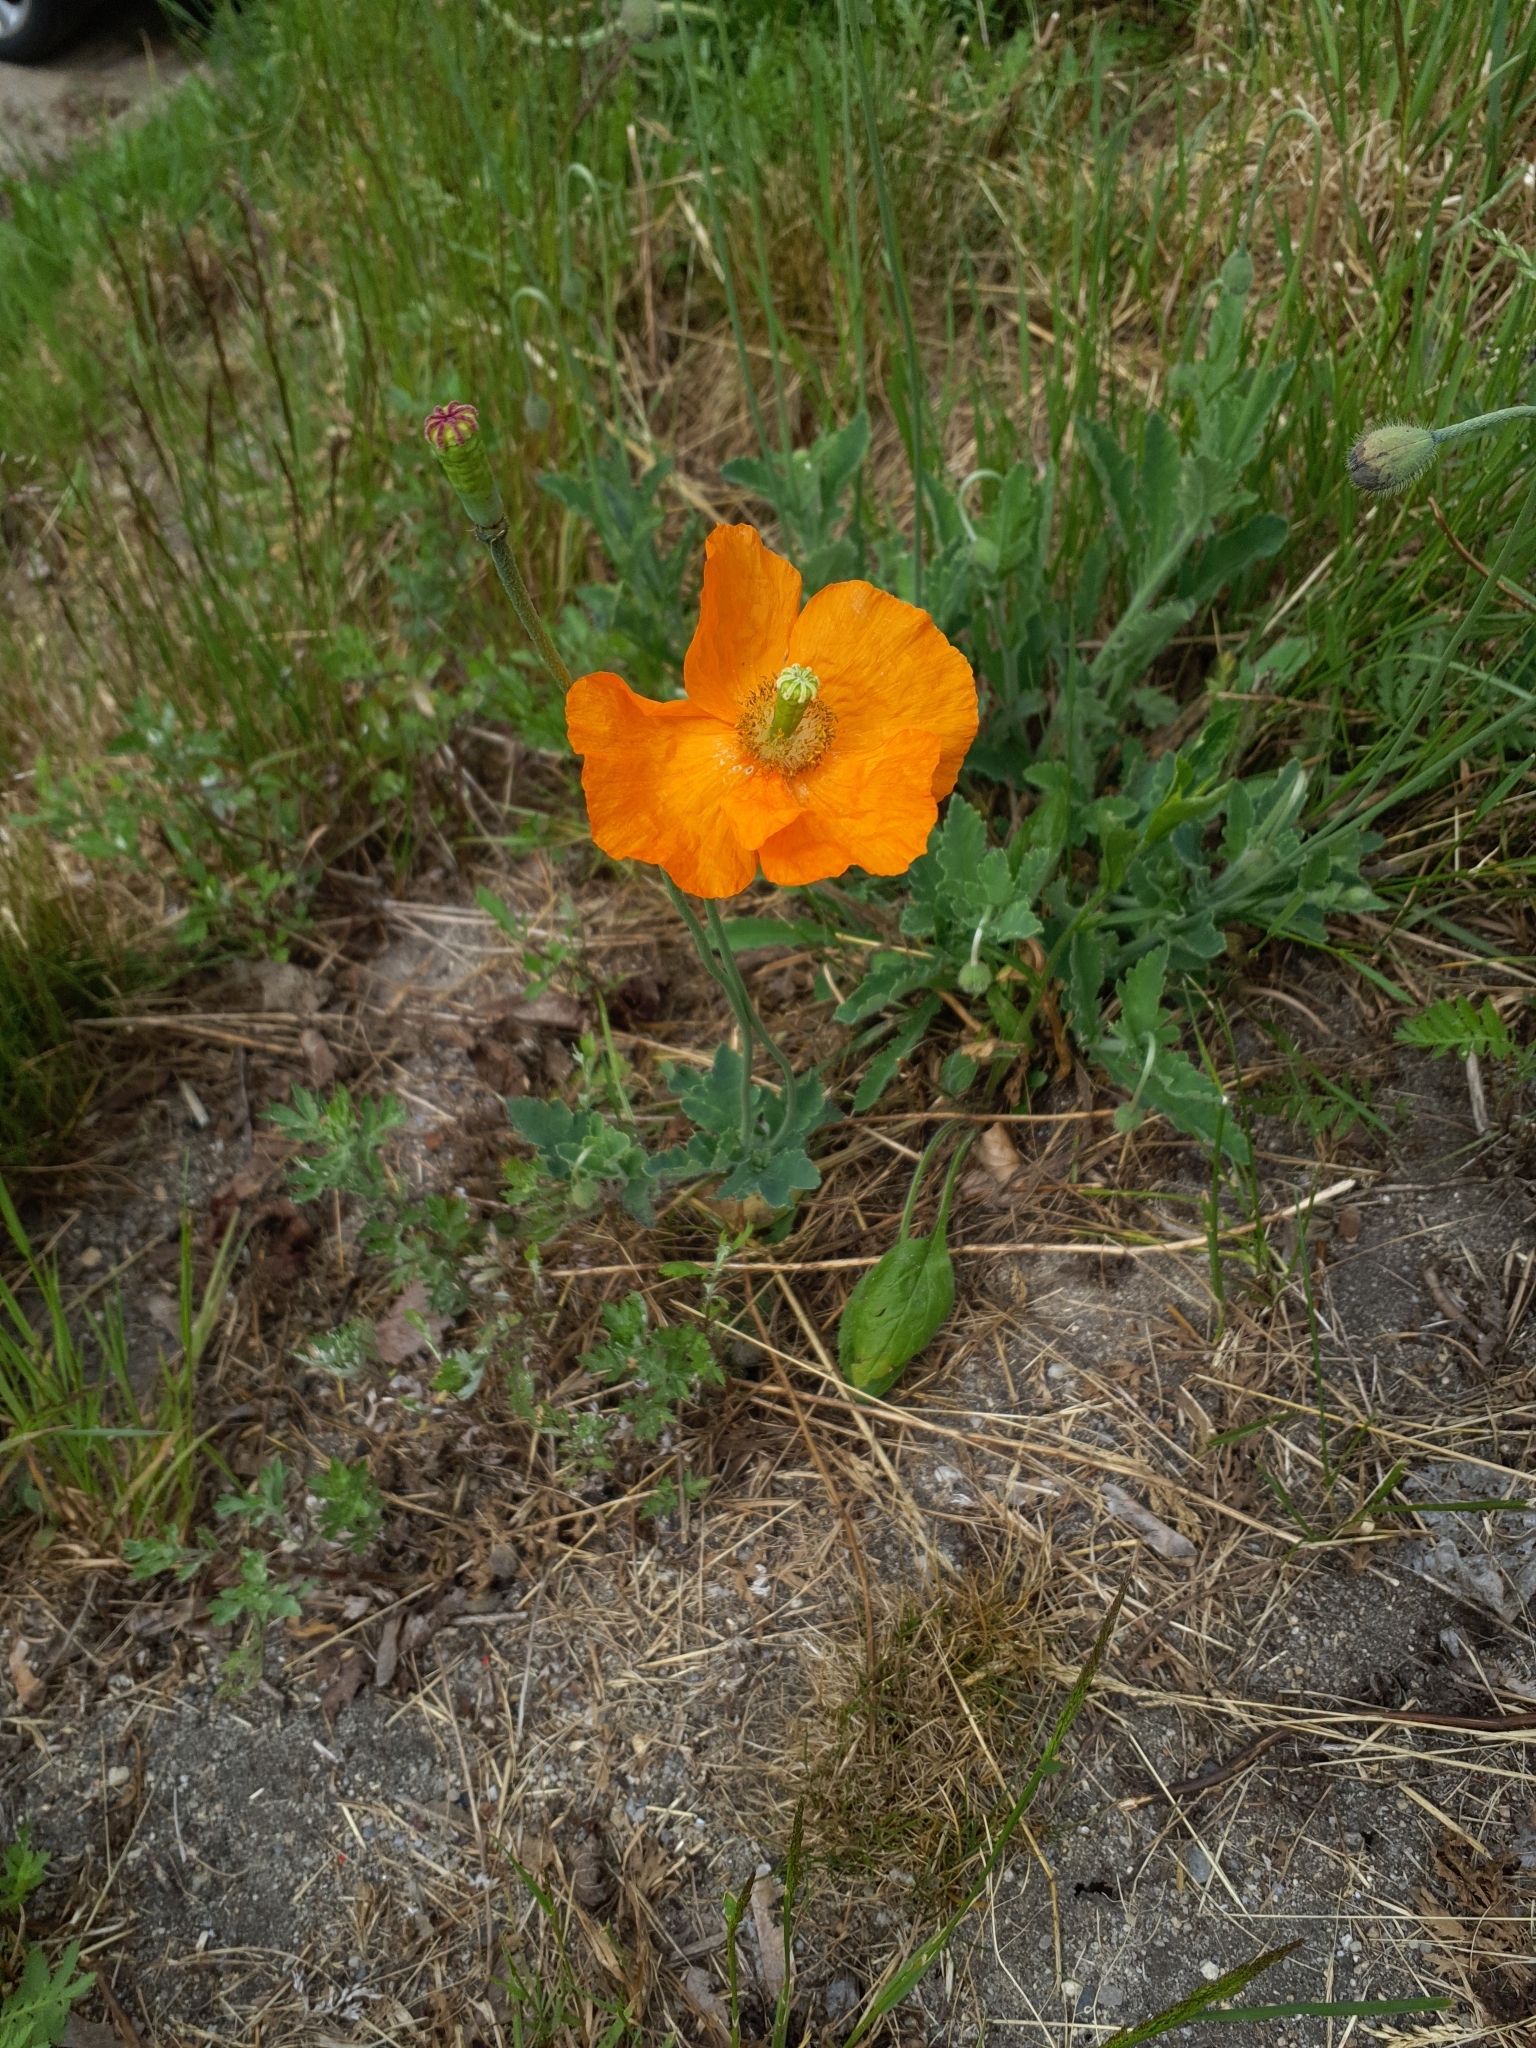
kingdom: Plantae
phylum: Tracheophyta
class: Magnoliopsida
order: Ranunculales
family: Papaveraceae
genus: Papaver
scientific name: Papaver atlanticum
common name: Atlas poppy
